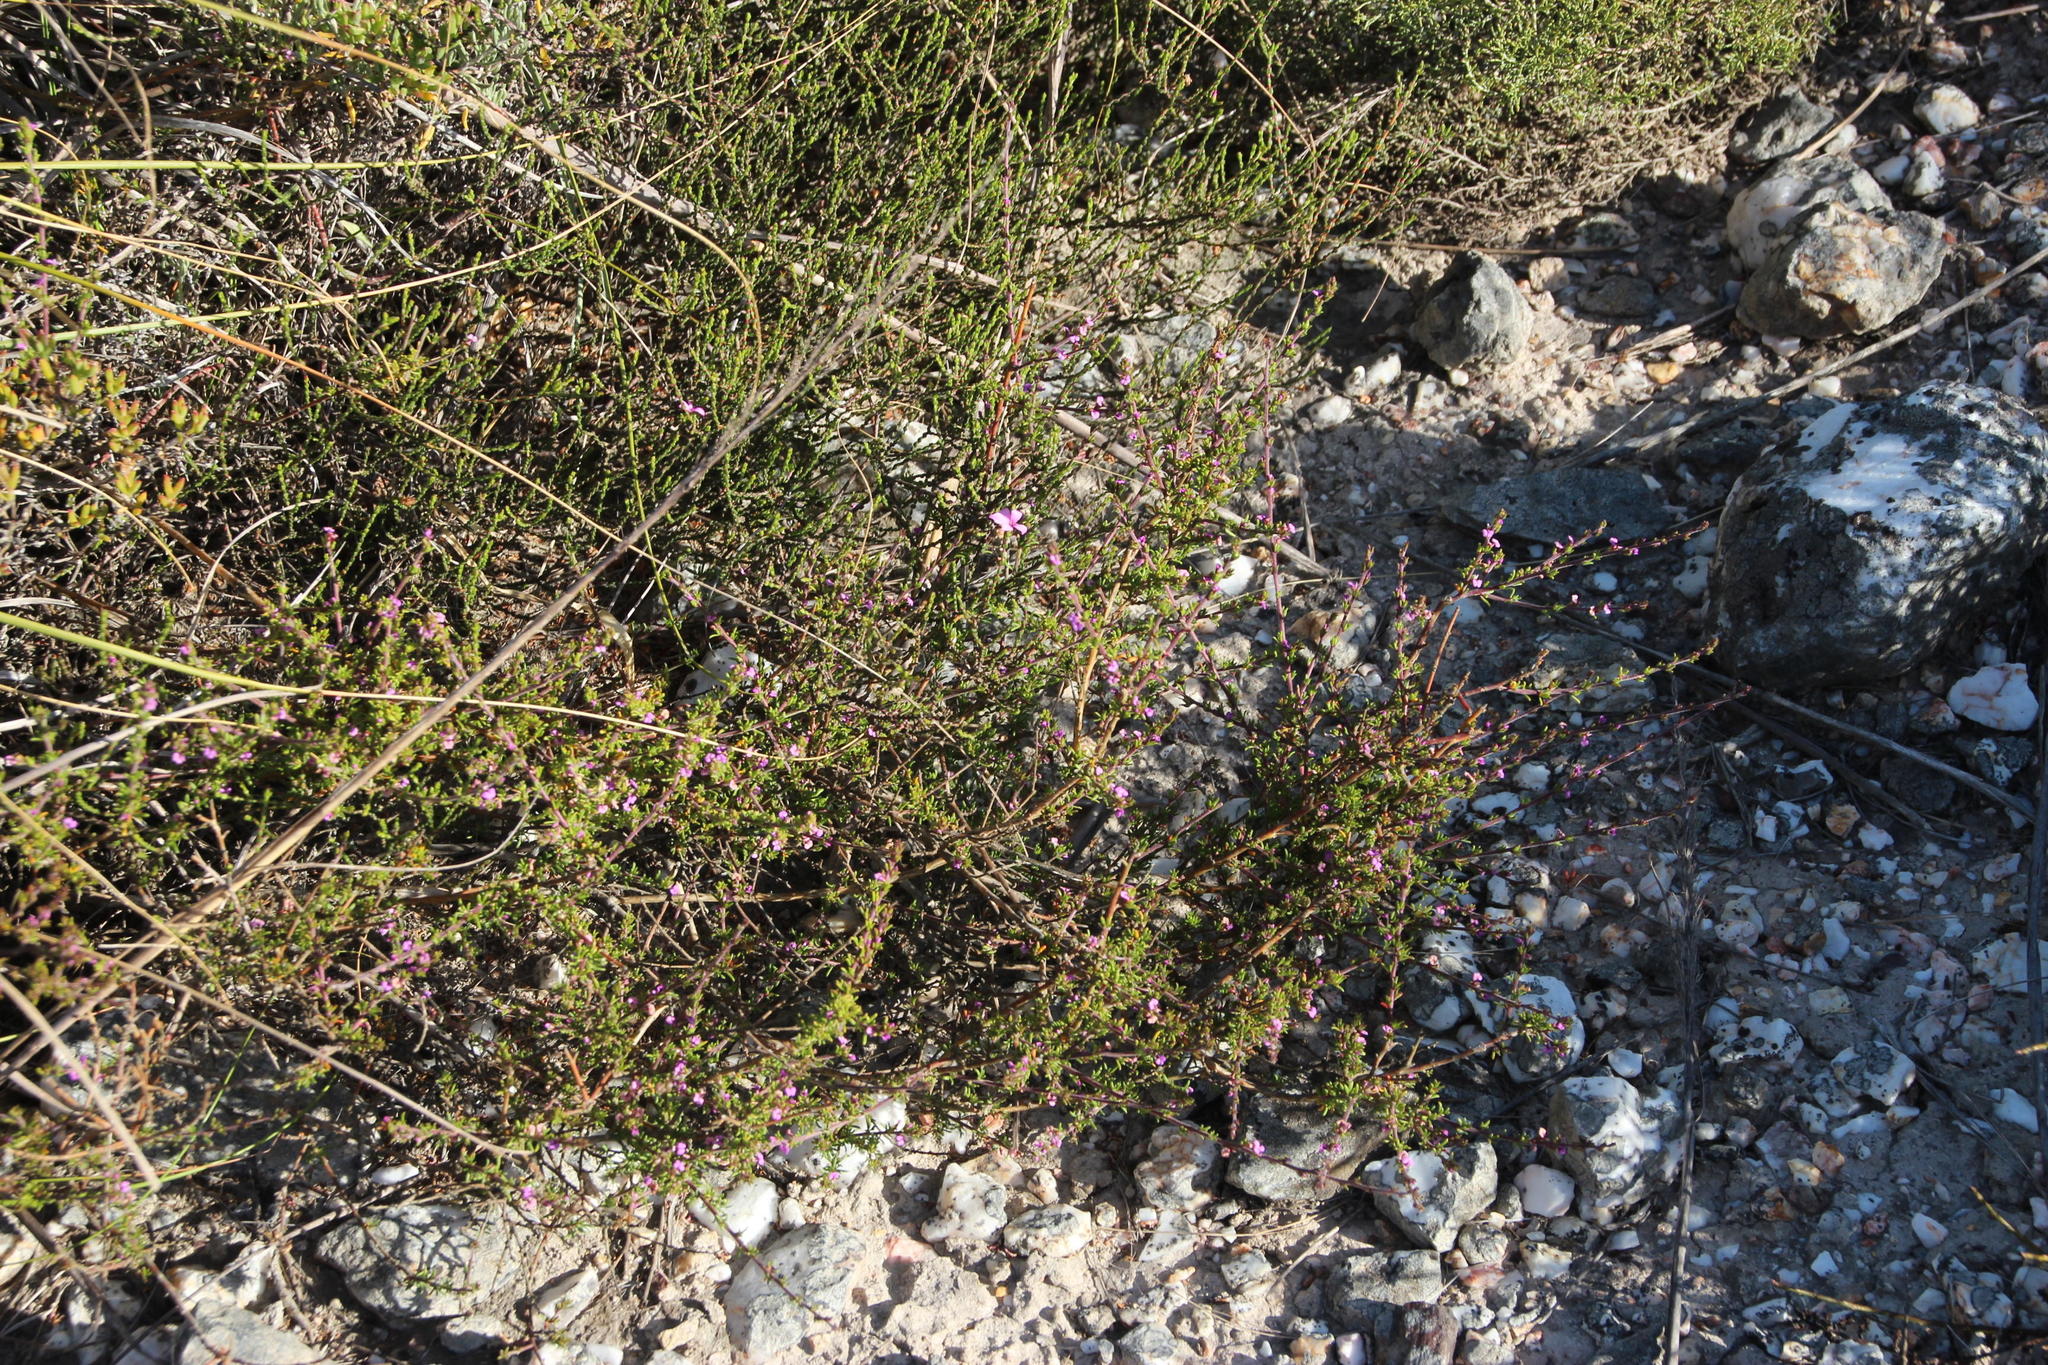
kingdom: Plantae
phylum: Tracheophyta
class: Magnoliopsida
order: Fabales
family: Polygalaceae
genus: Muraltia
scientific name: Muraltia rhamnoides
